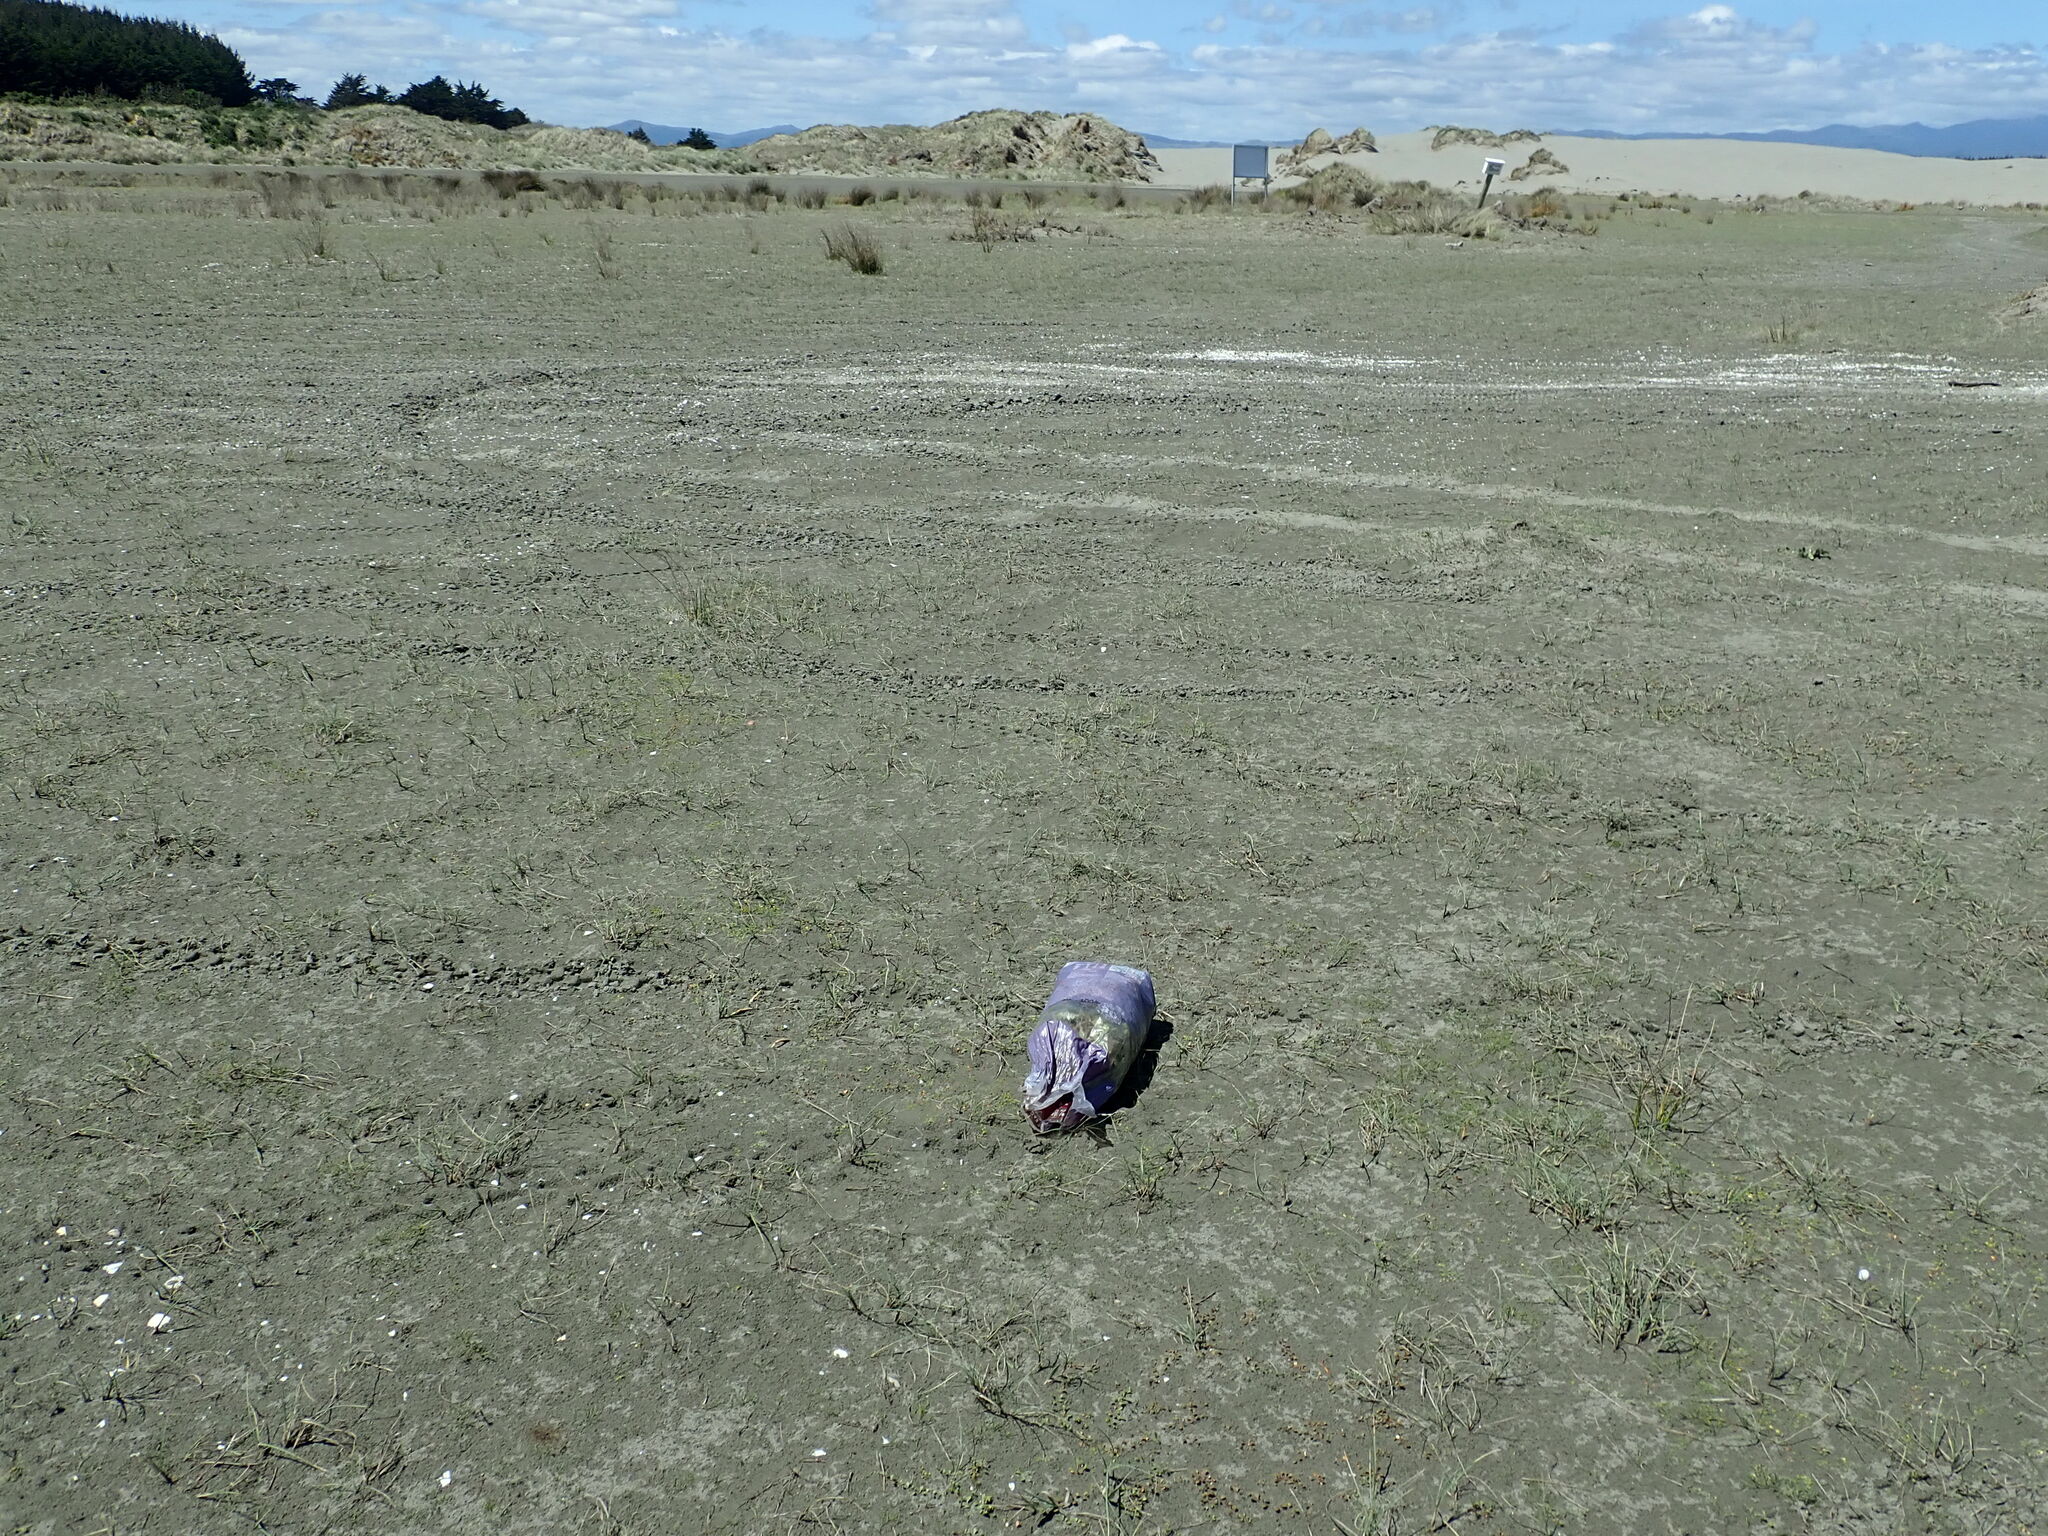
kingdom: Plantae
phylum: Tracheophyta
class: Magnoliopsida
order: Ranunculales
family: Ranunculaceae
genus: Ranunculus
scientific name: Ranunculus acaulis
